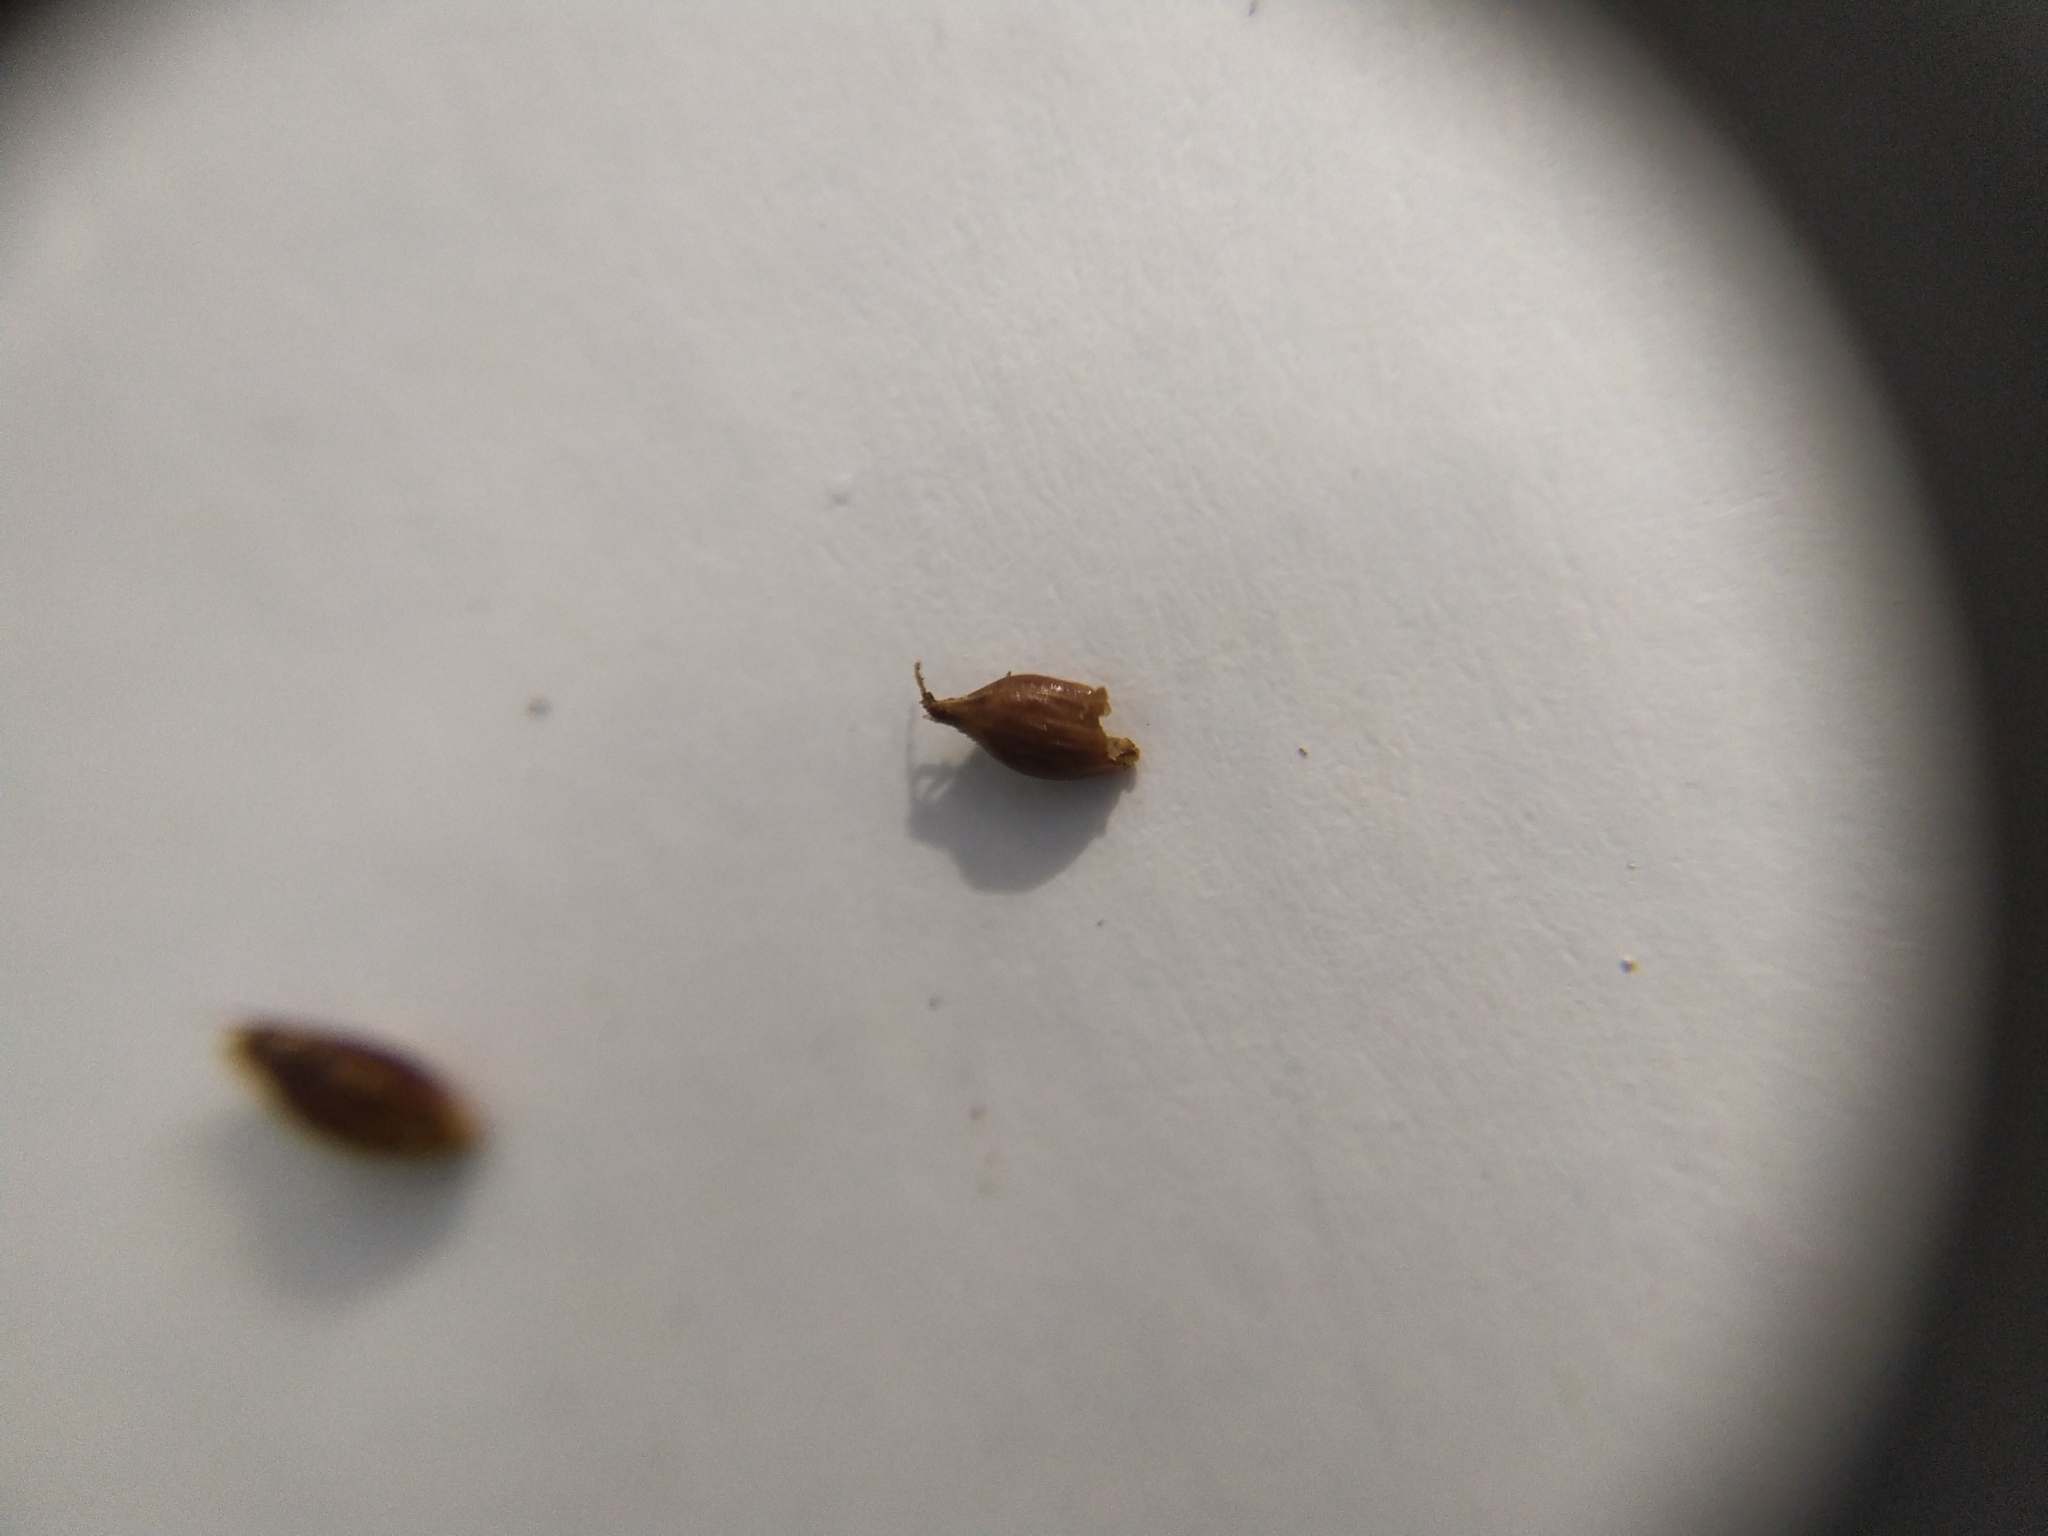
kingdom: Plantae
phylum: Tracheophyta
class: Liliopsida
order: Poales
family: Cyperaceae
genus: Carex
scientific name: Carex lambertiana
